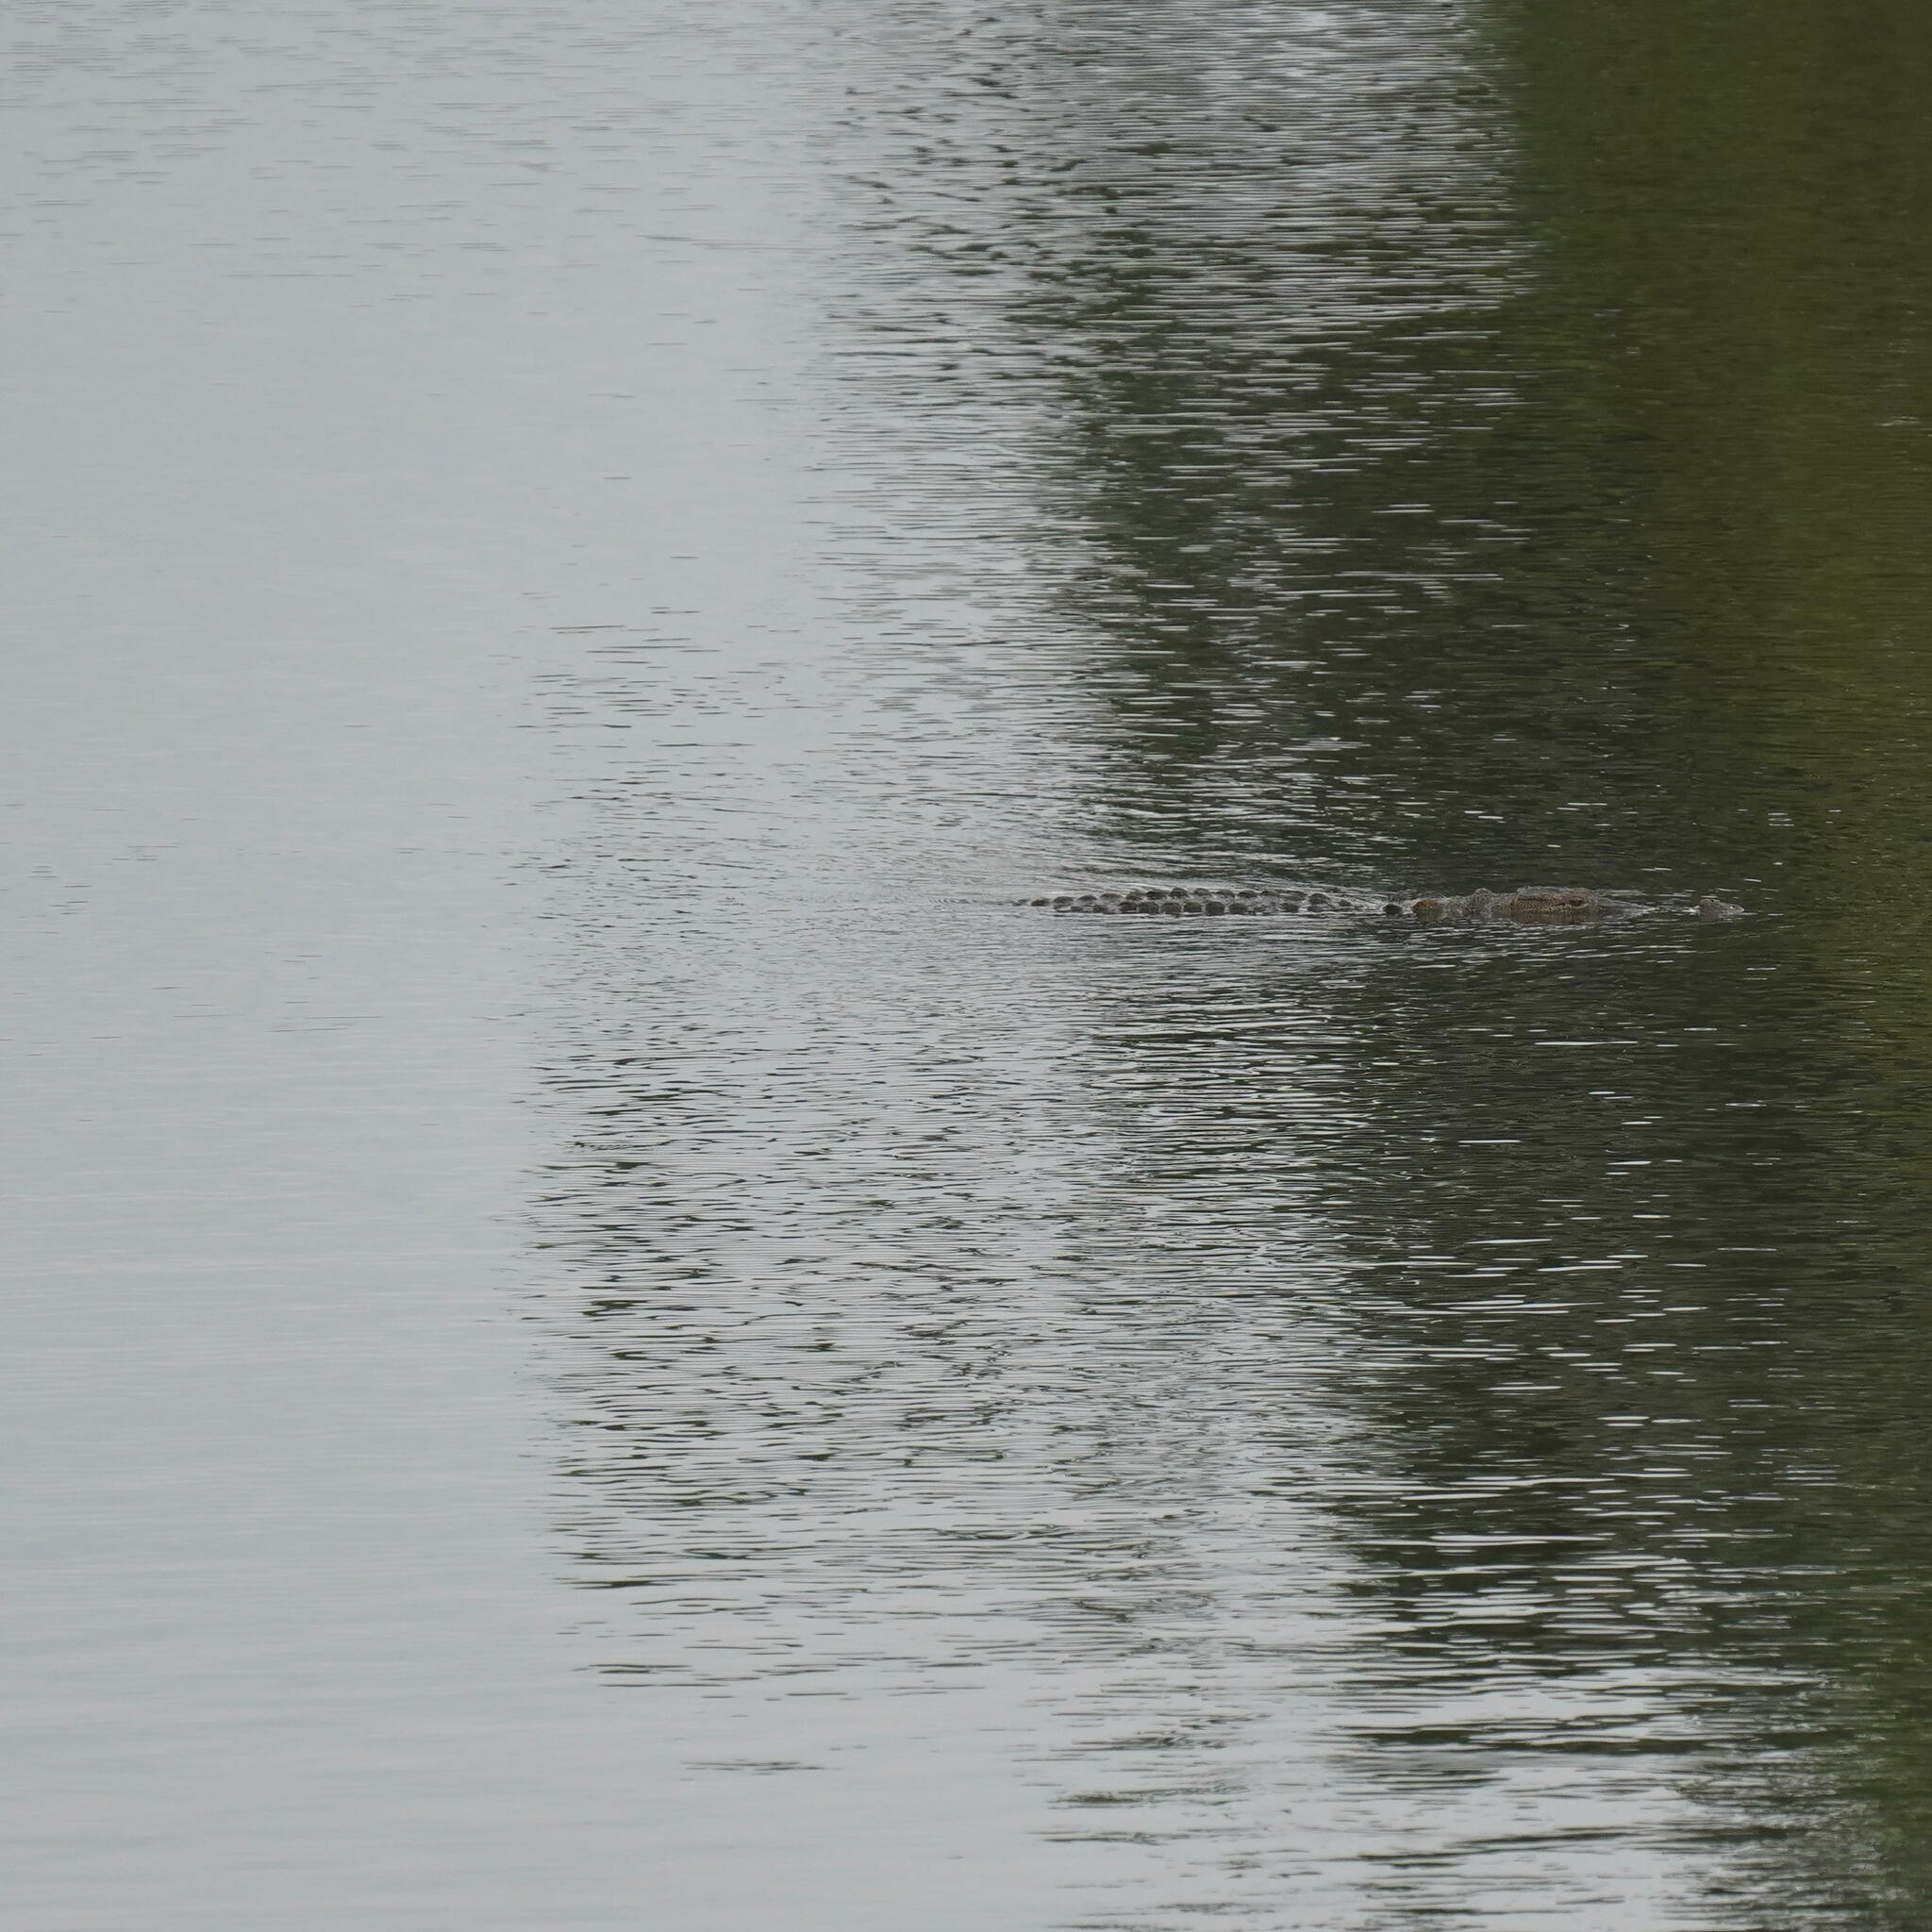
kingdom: Animalia
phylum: Chordata
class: Crocodylia
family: Crocodylidae
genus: Crocodylus
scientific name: Crocodylus palustris
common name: Mugger crocodile
